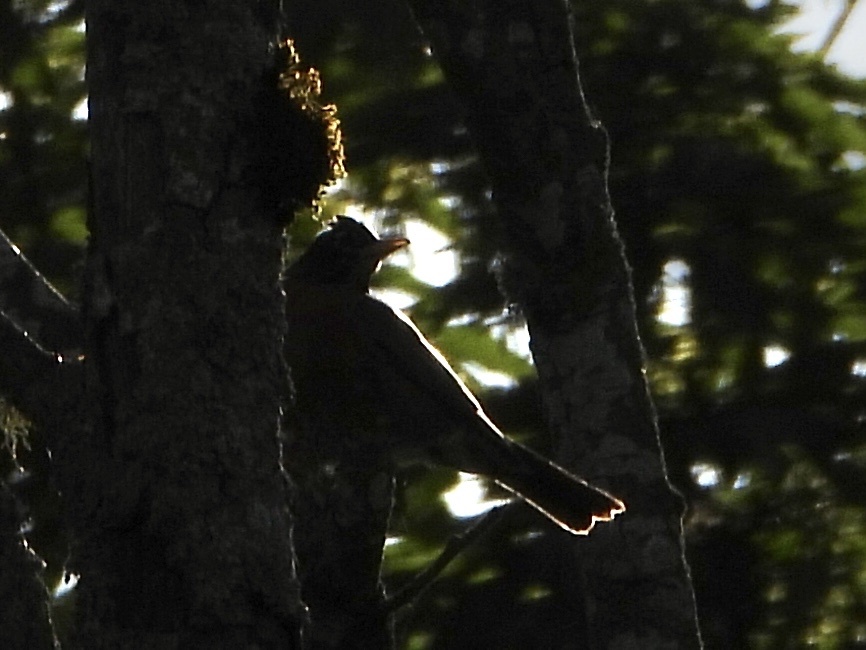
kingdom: Animalia
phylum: Chordata
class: Aves
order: Passeriformes
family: Turdidae
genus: Turdus
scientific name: Turdus migratorius
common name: American robin
